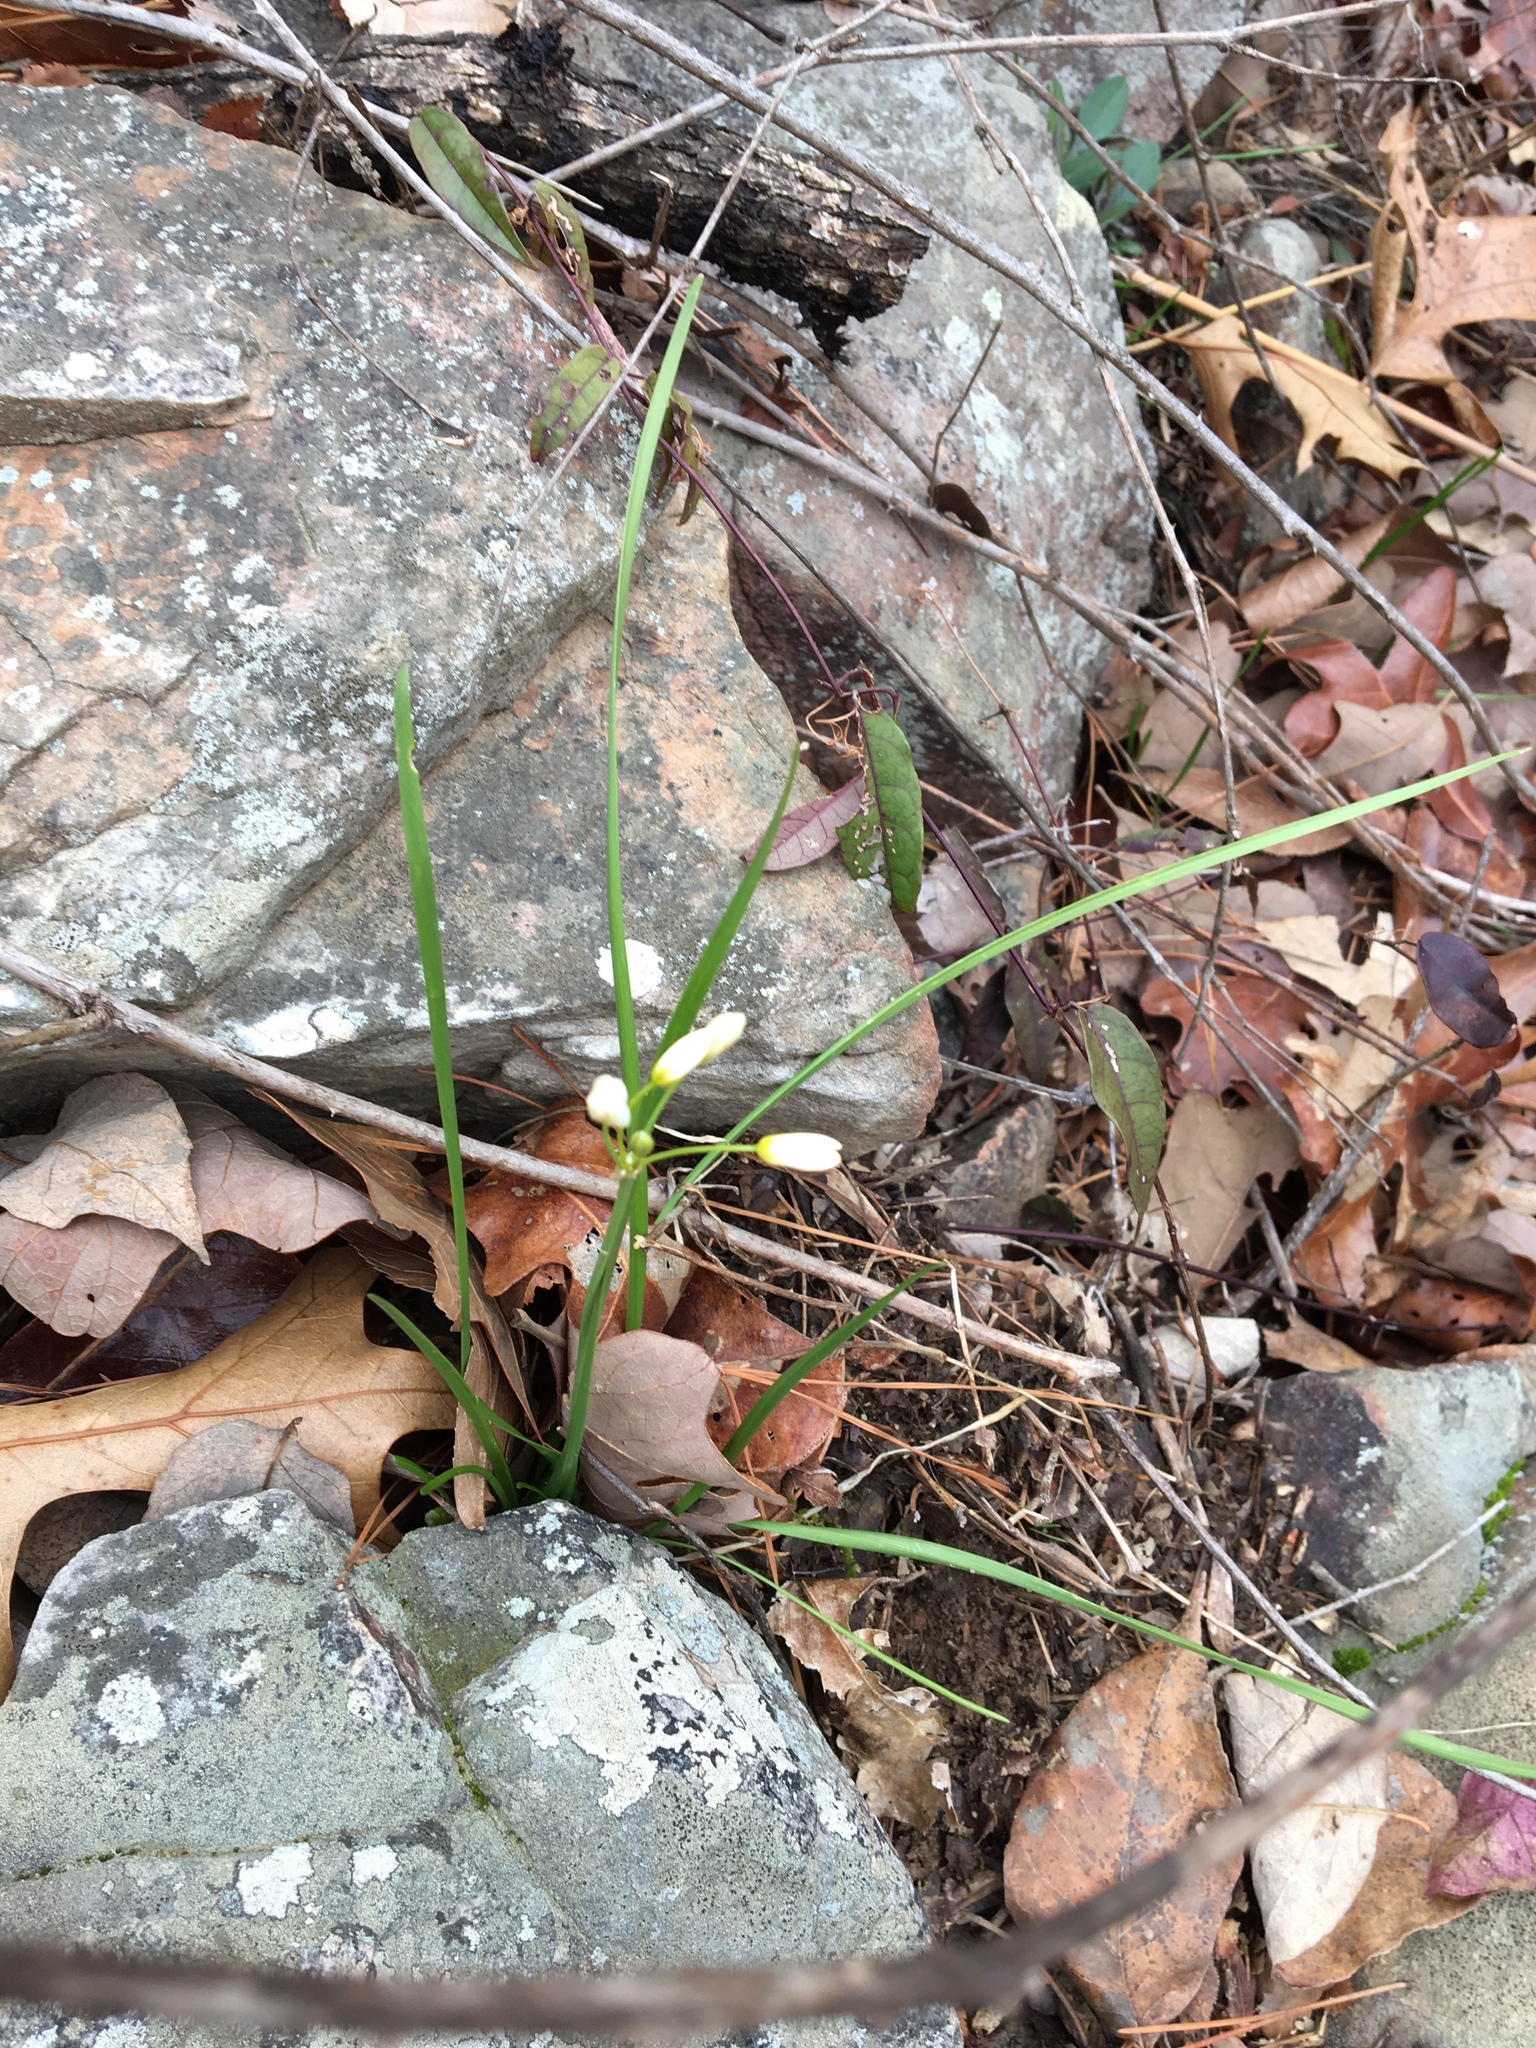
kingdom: Plantae
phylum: Tracheophyta
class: Liliopsida
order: Asparagales
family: Amaryllidaceae
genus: Nothoscordum
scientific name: Nothoscordum bivalve
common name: Crow-poison
